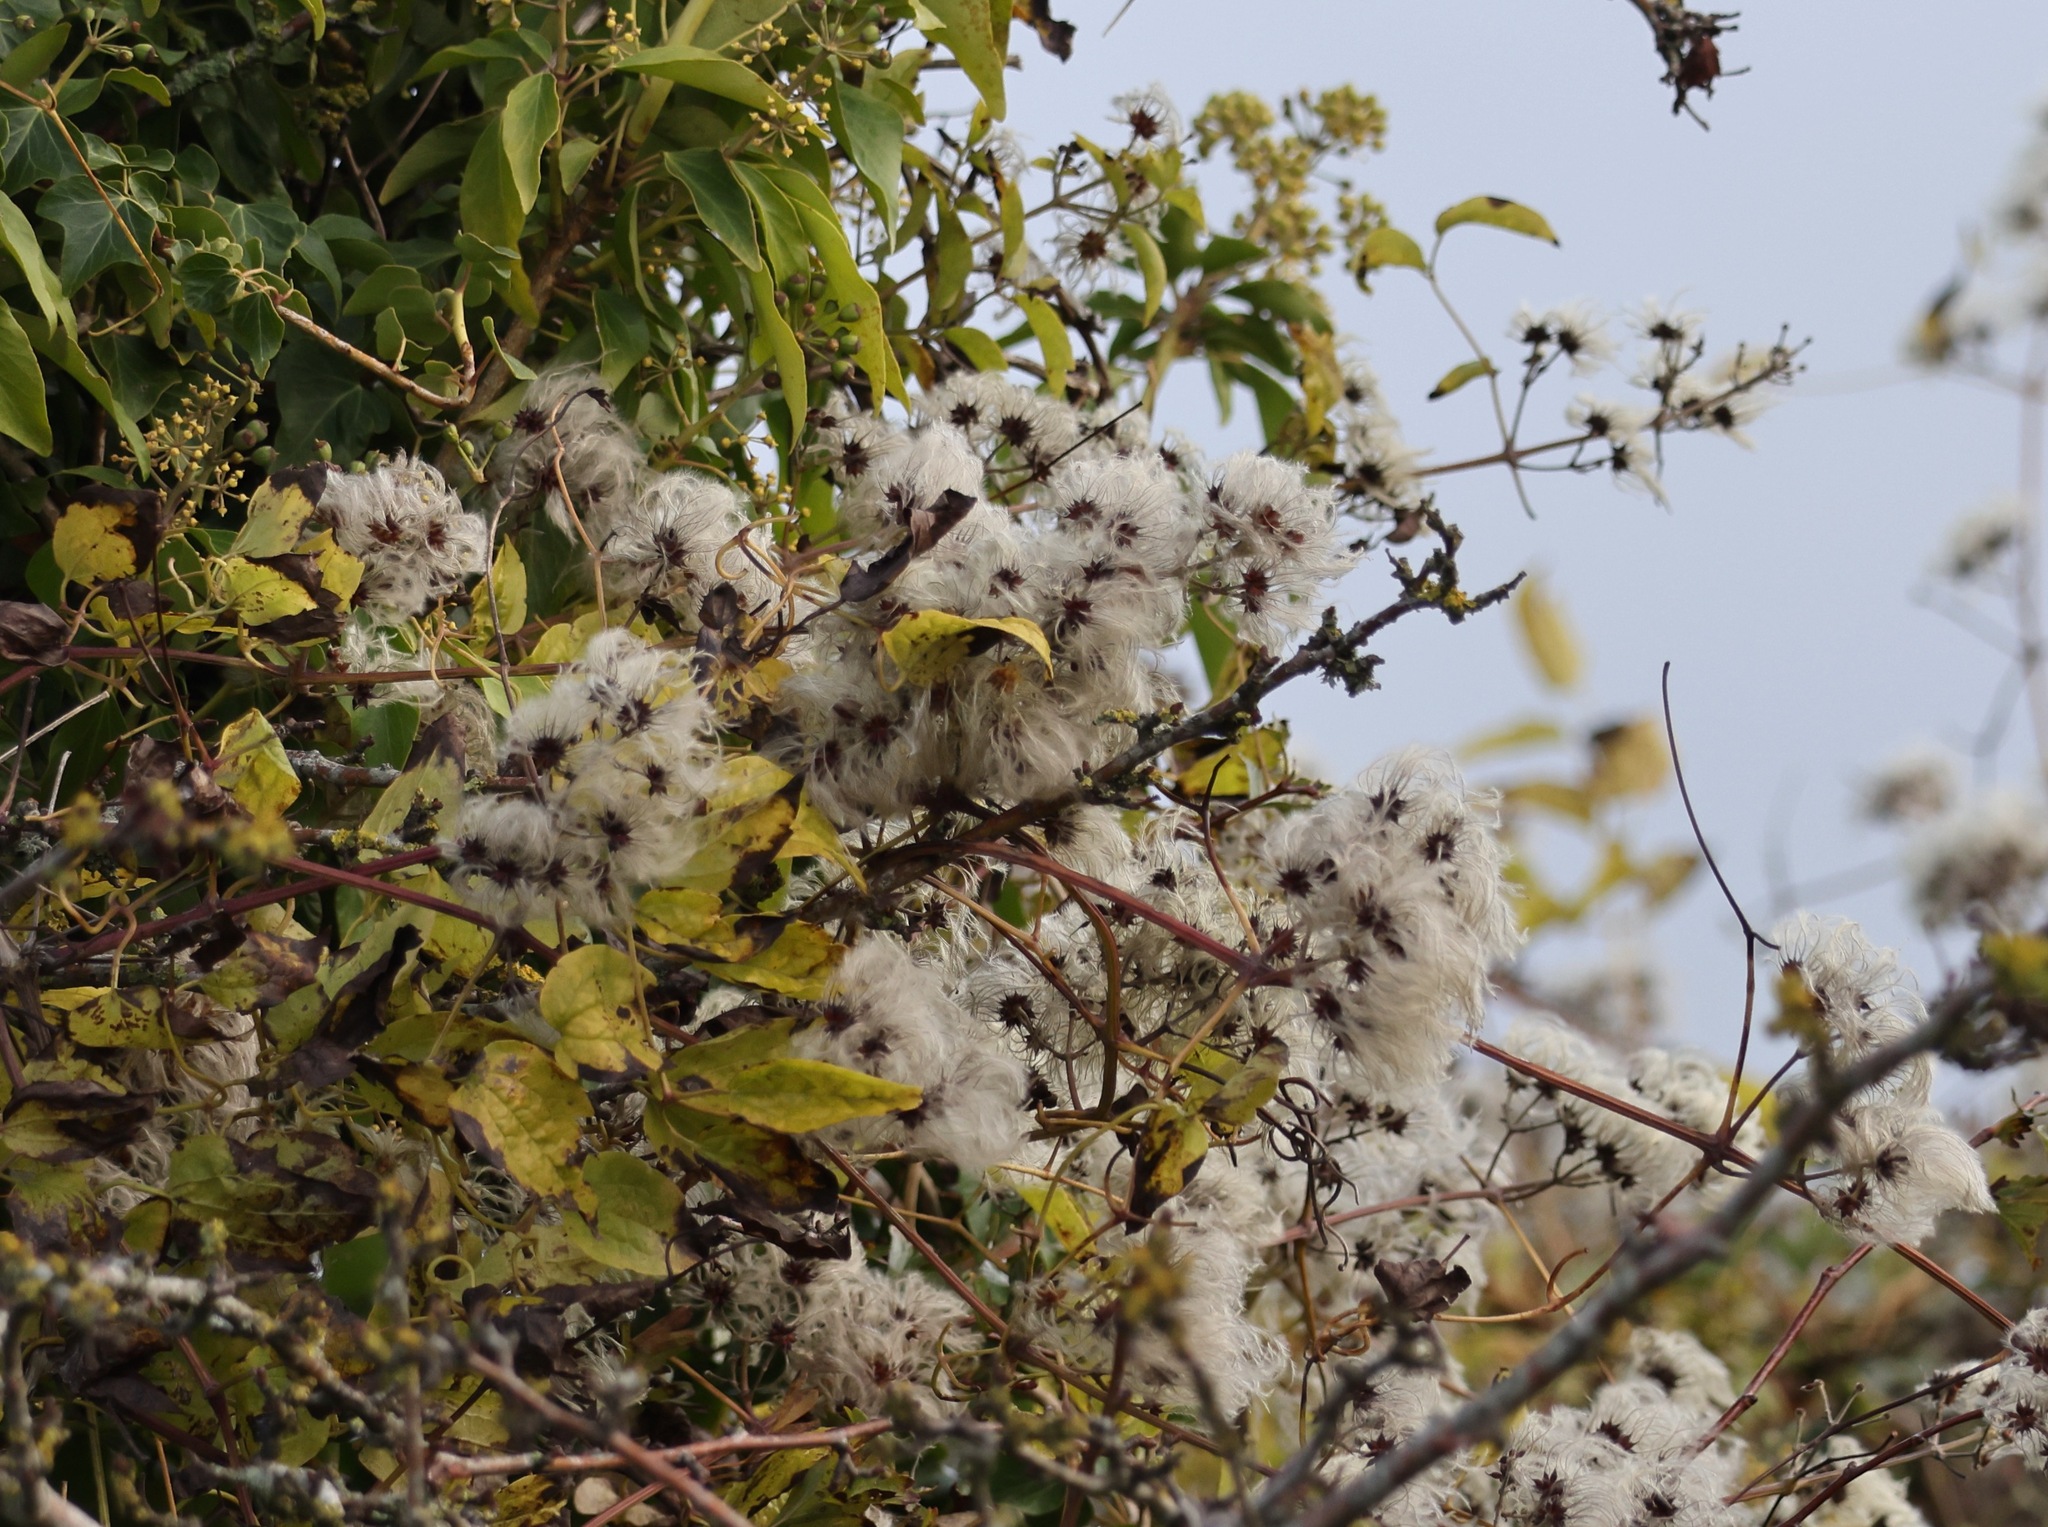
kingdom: Plantae
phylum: Tracheophyta
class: Magnoliopsida
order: Ranunculales
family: Ranunculaceae
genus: Clematis
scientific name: Clematis vitalba
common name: Evergreen clematis
